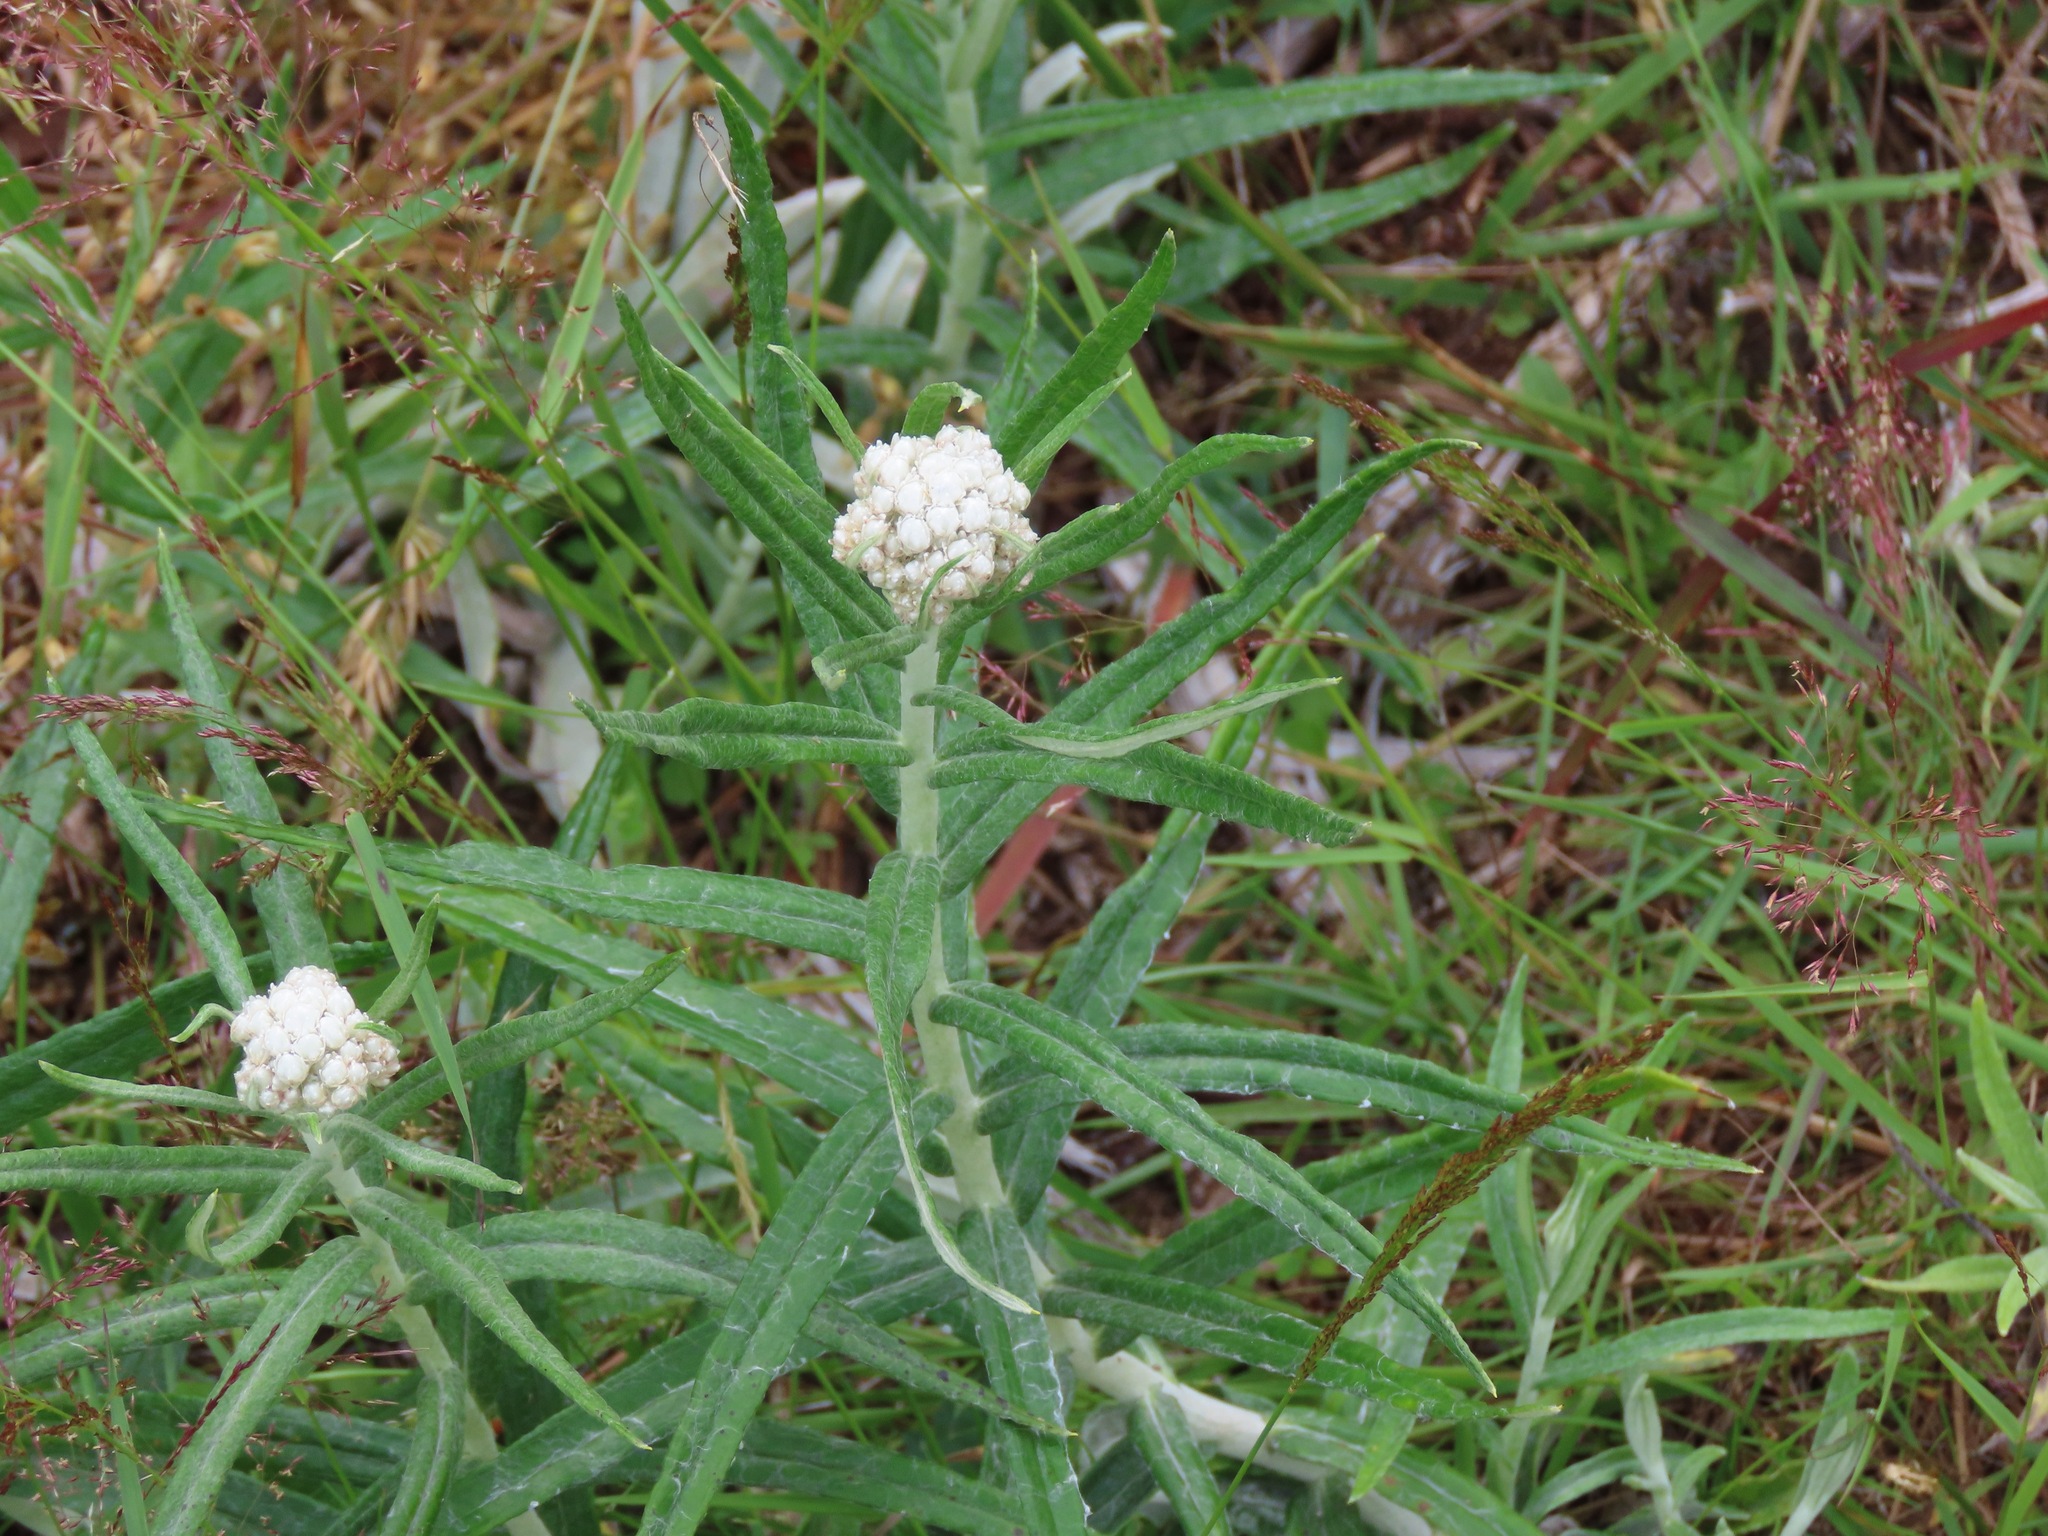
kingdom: Plantae
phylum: Tracheophyta
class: Magnoliopsida
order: Asterales
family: Asteraceae
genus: Anaphalis
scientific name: Anaphalis margaritacea
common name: Pearly everlasting
